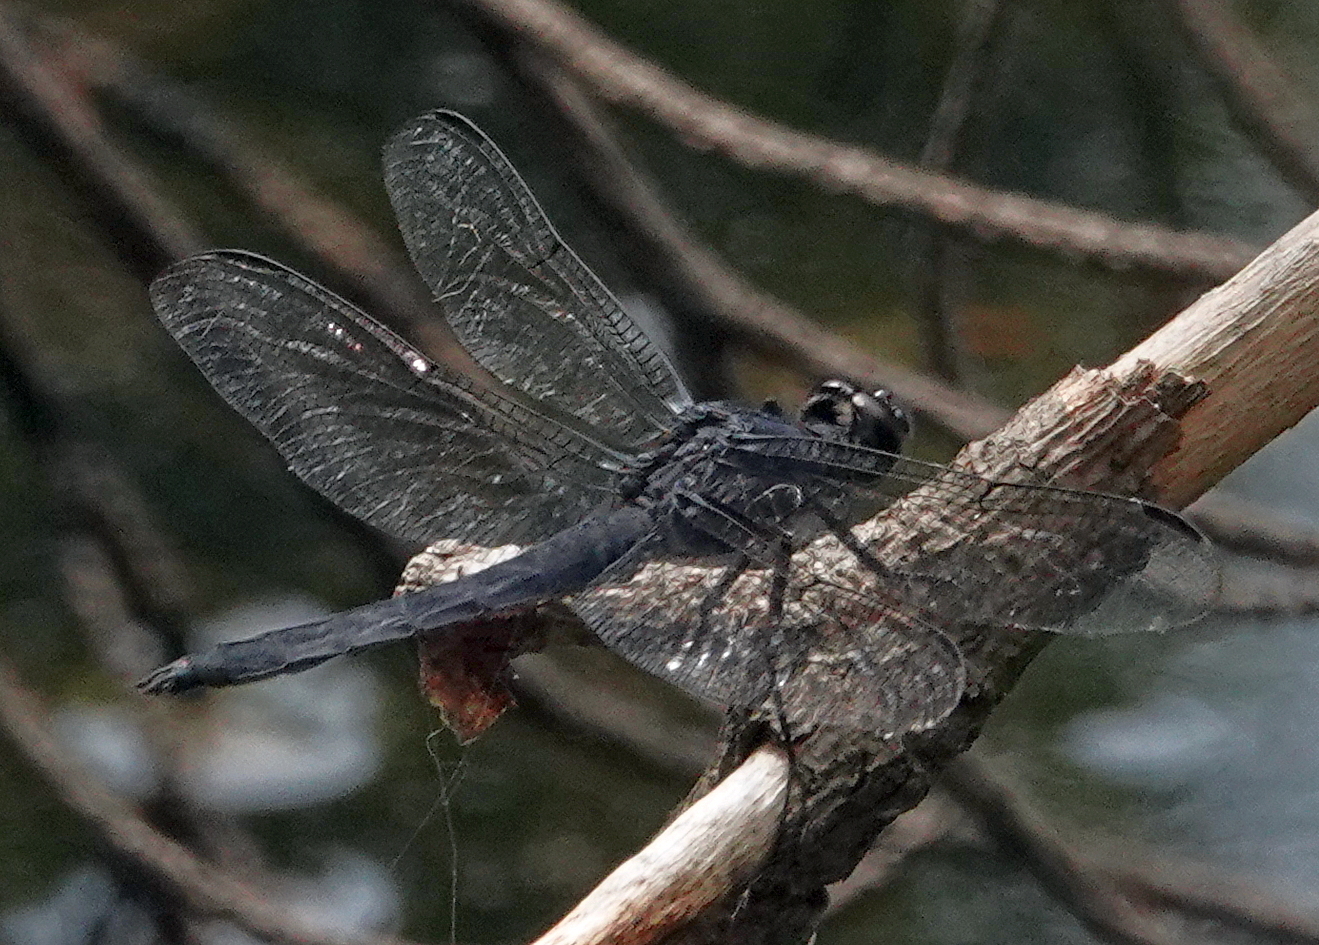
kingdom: Animalia
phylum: Arthropoda
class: Insecta
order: Odonata
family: Libellulidae
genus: Libellula
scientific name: Libellula incesta
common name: Slaty skimmer
